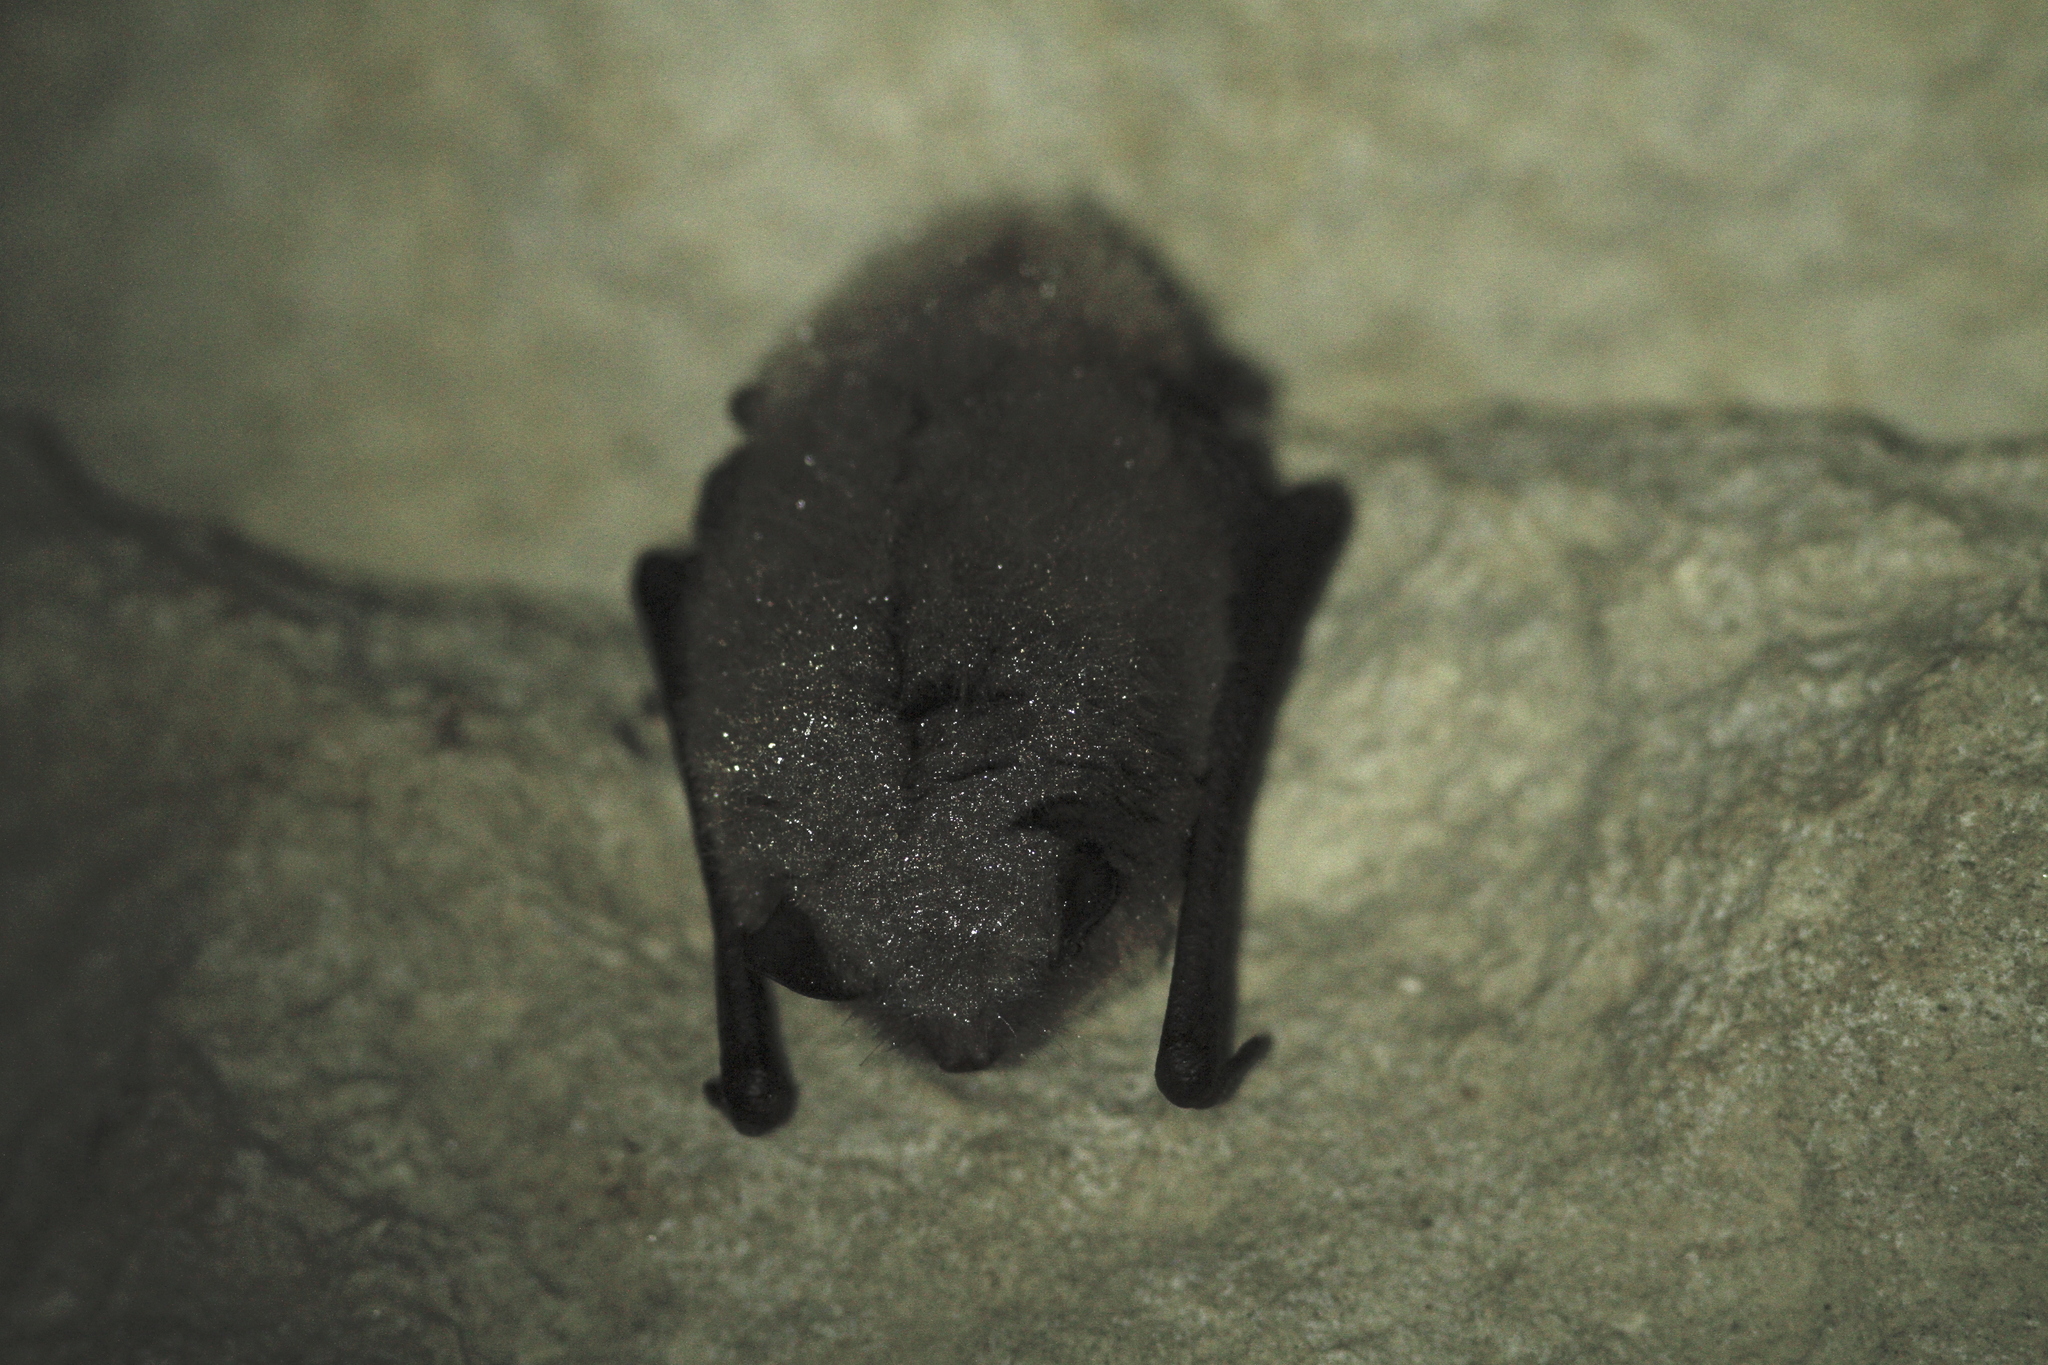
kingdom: Animalia
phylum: Chordata
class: Mammalia
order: Chiroptera
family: Vespertilionidae
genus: Myotis
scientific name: Myotis daubentonii
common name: Daubenton's myotis
